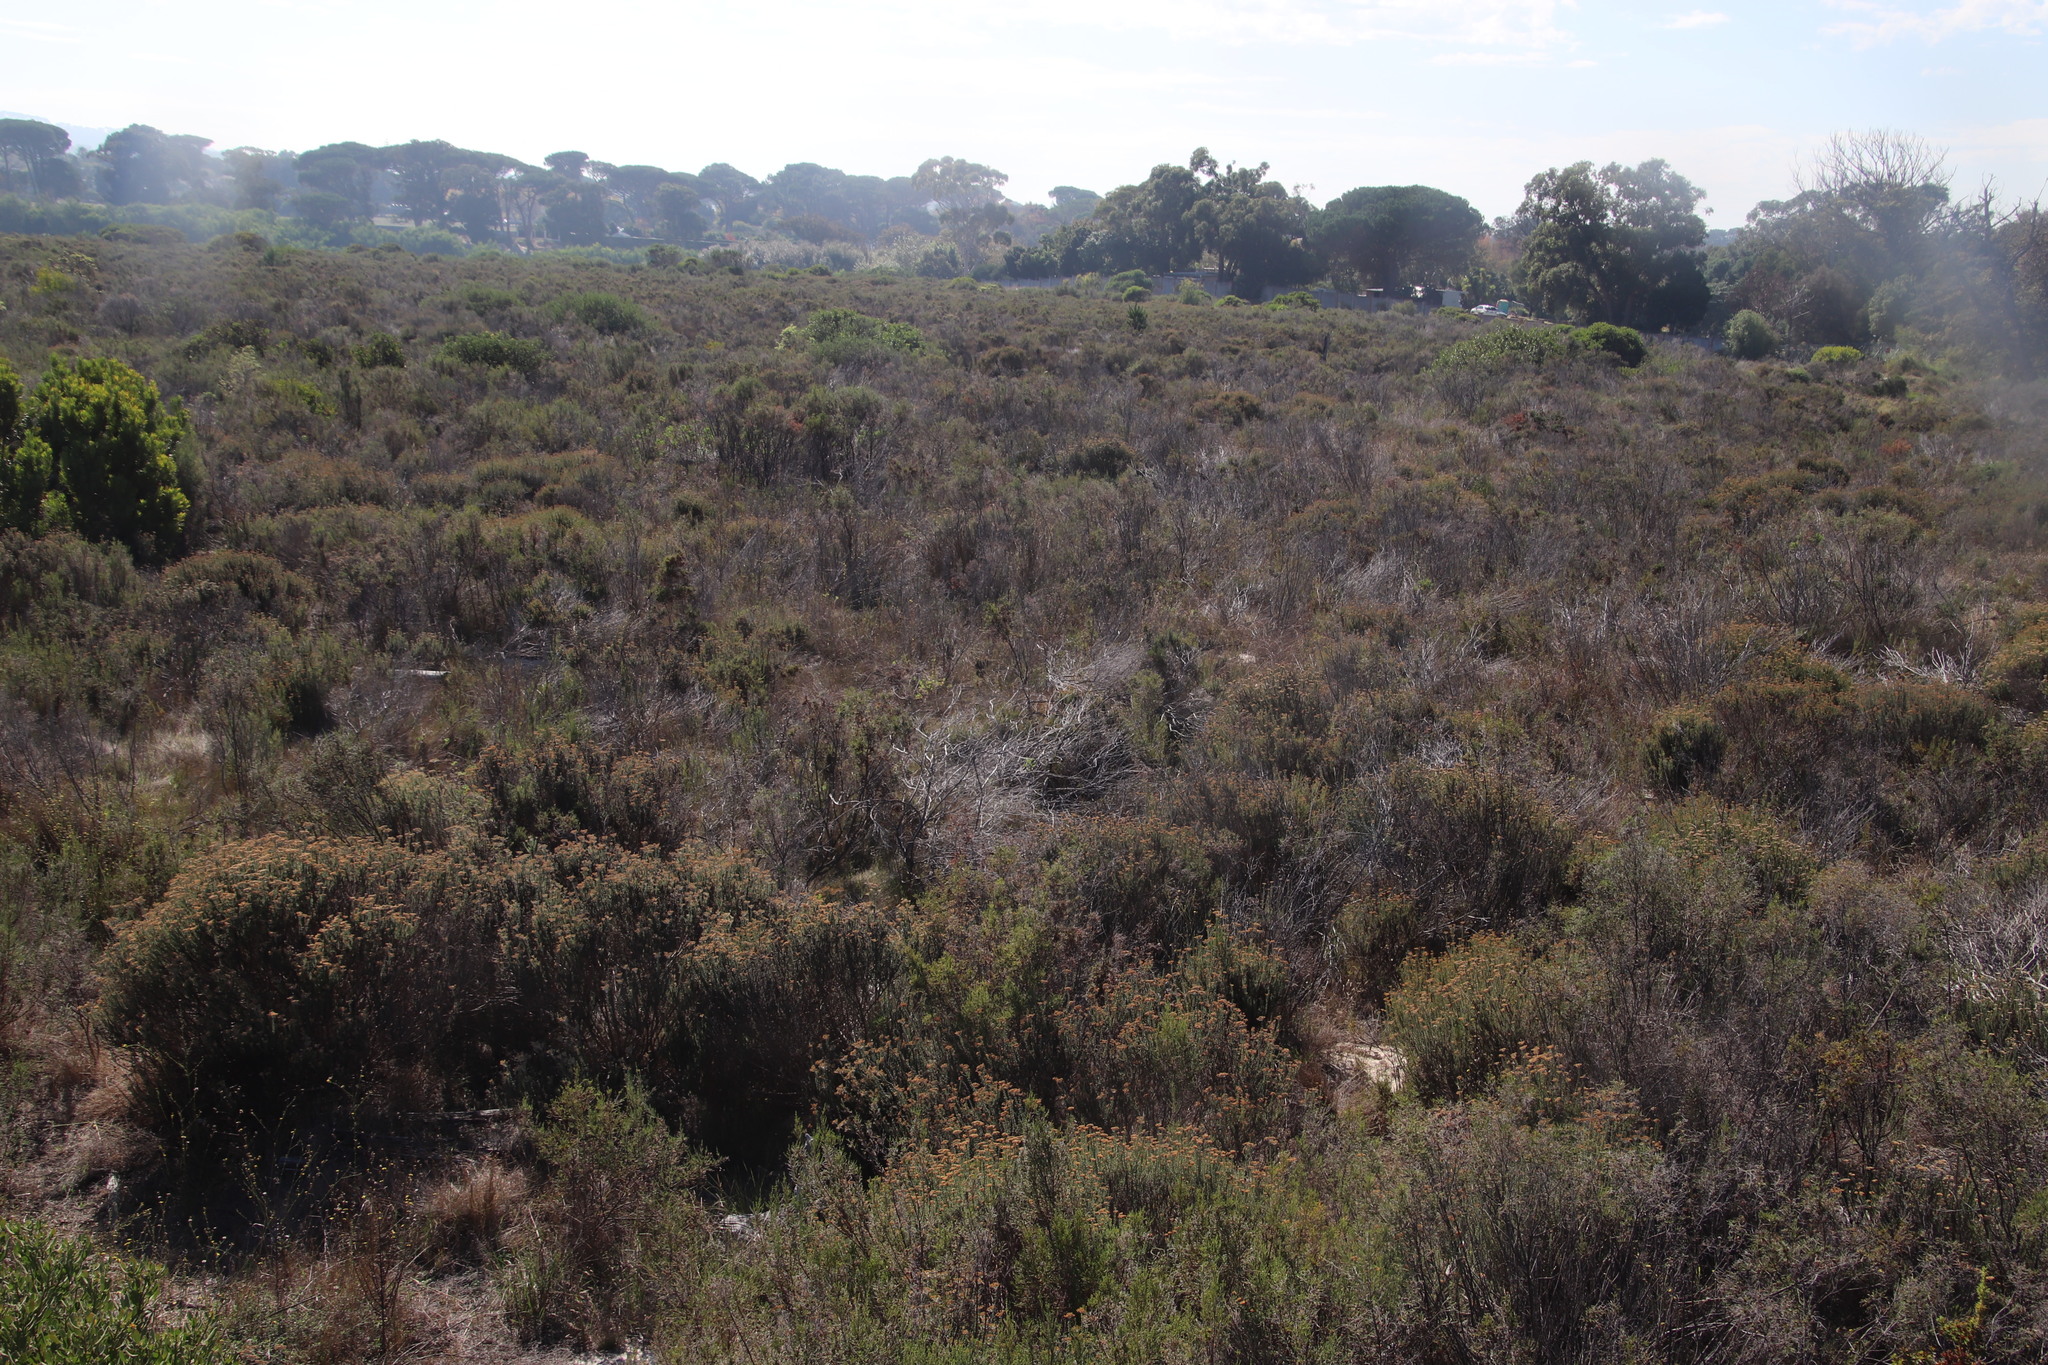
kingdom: Plantae
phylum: Tracheophyta
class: Magnoliopsida
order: Asterales
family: Asteraceae
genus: Metalasia
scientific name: Metalasia densa
